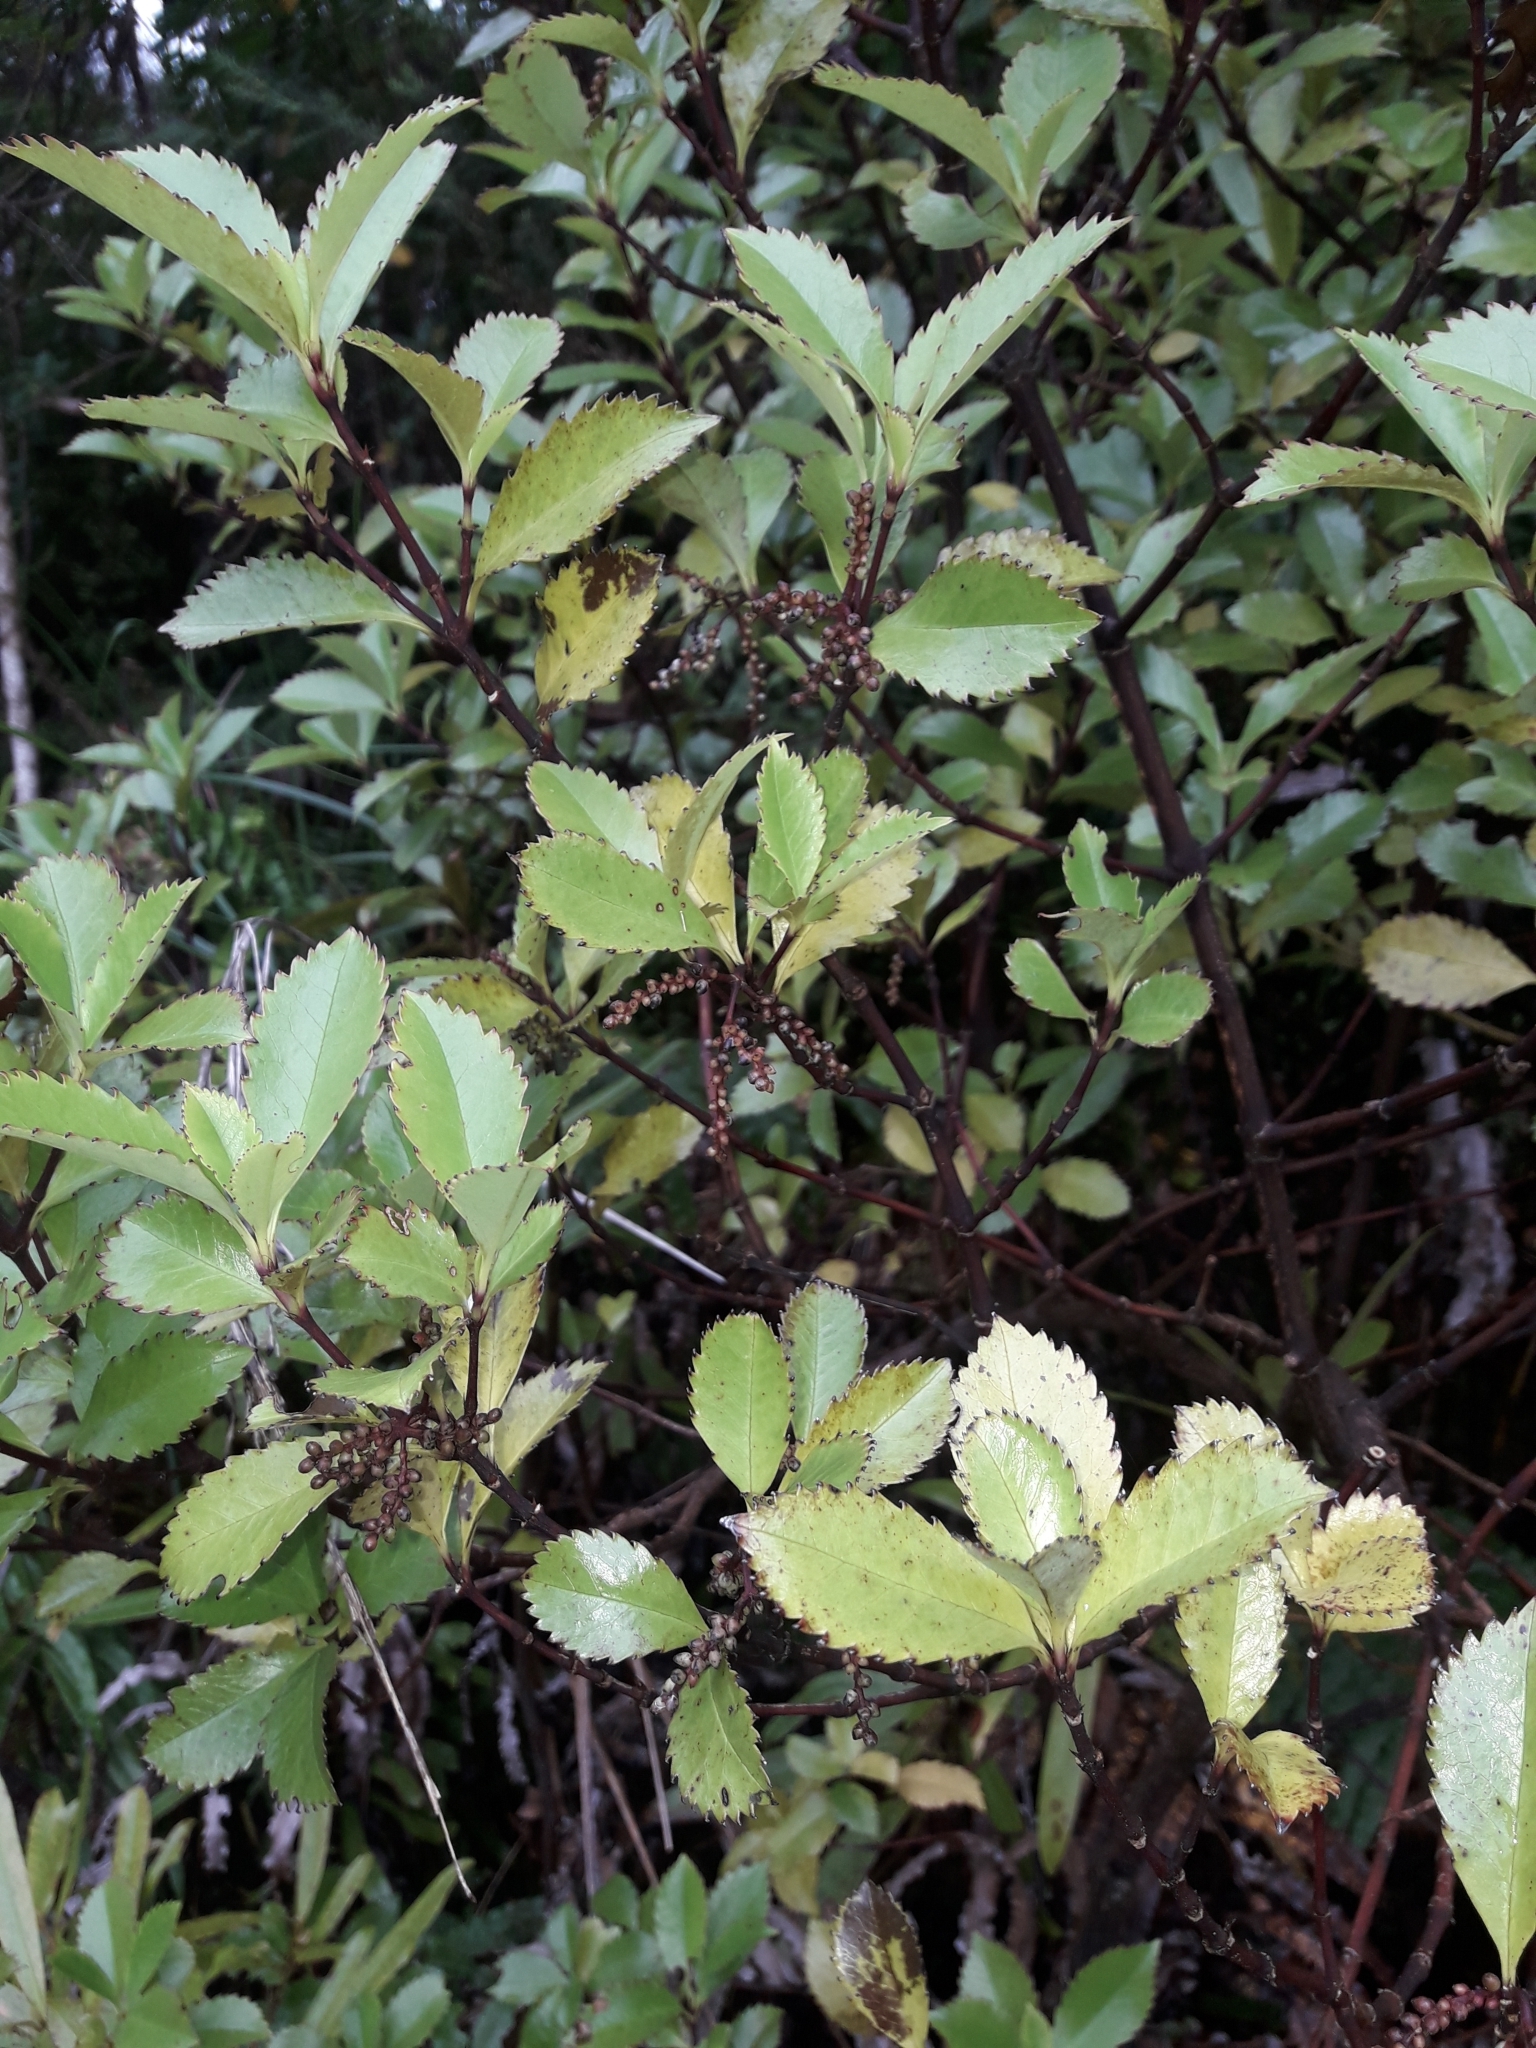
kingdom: Plantae
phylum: Tracheophyta
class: Magnoliopsida
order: Chloranthales
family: Chloranthaceae
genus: Ascarina
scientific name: Ascarina lucida
